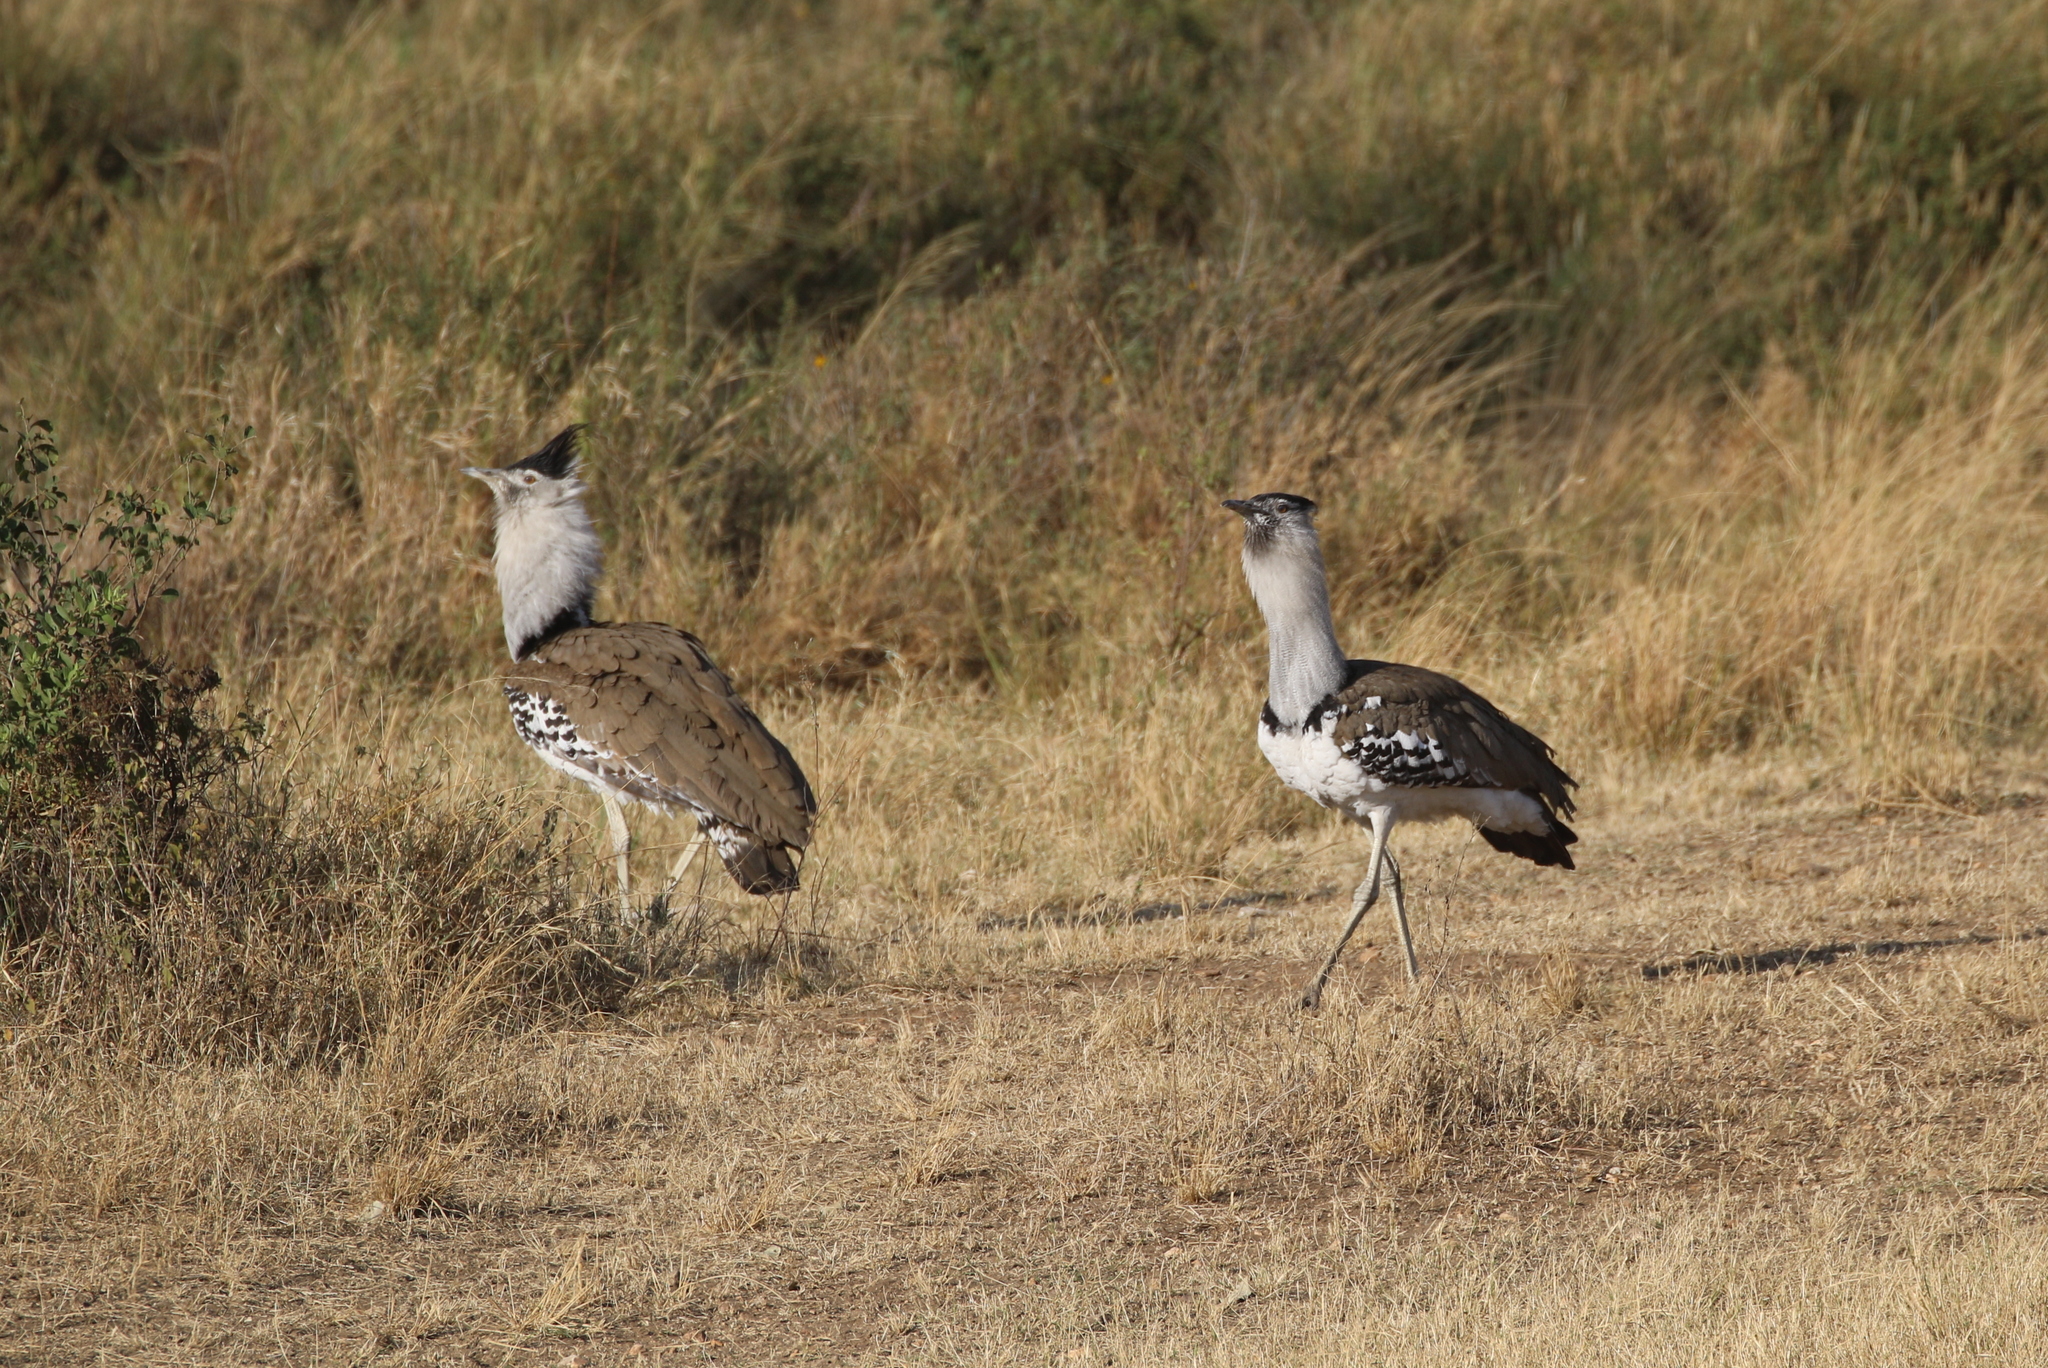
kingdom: Animalia
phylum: Chordata
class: Aves
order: Otidiformes
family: Otididae
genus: Ardeotis
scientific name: Ardeotis kori
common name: Kori bustard
